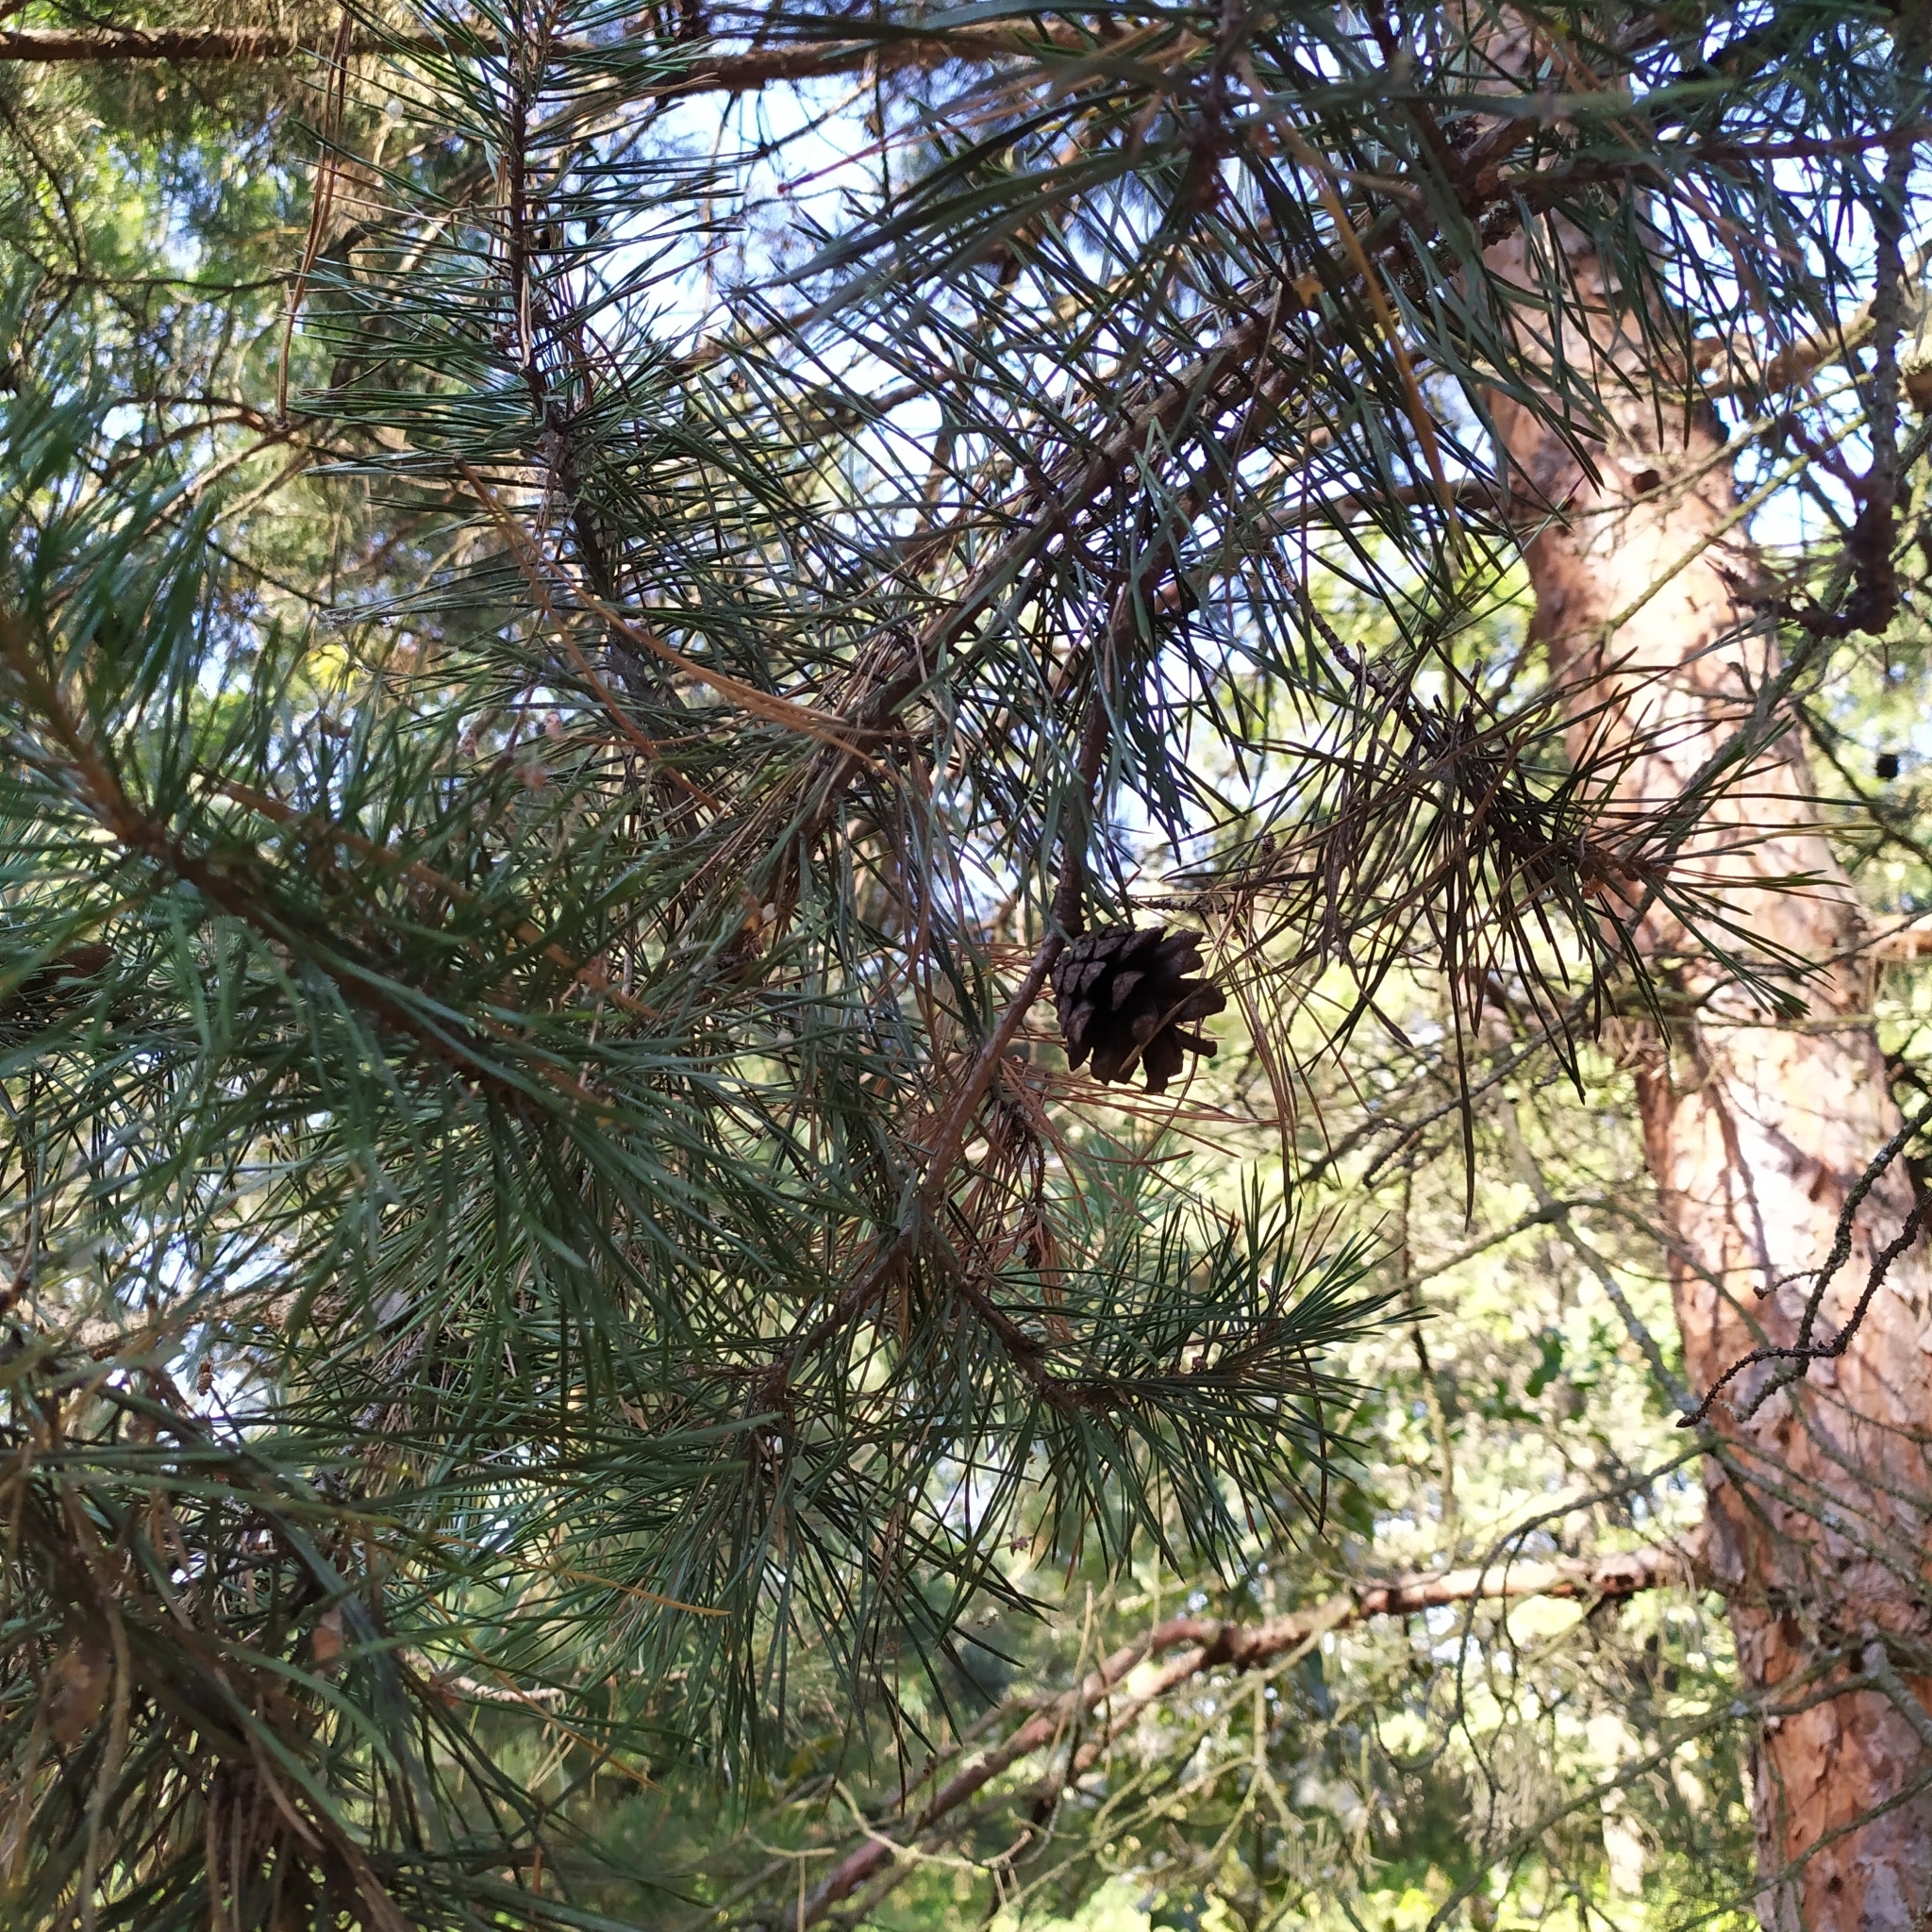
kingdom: Plantae
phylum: Tracheophyta
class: Pinopsida
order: Pinales
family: Pinaceae
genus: Pinus
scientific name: Pinus sylvestris
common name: Scots pine
